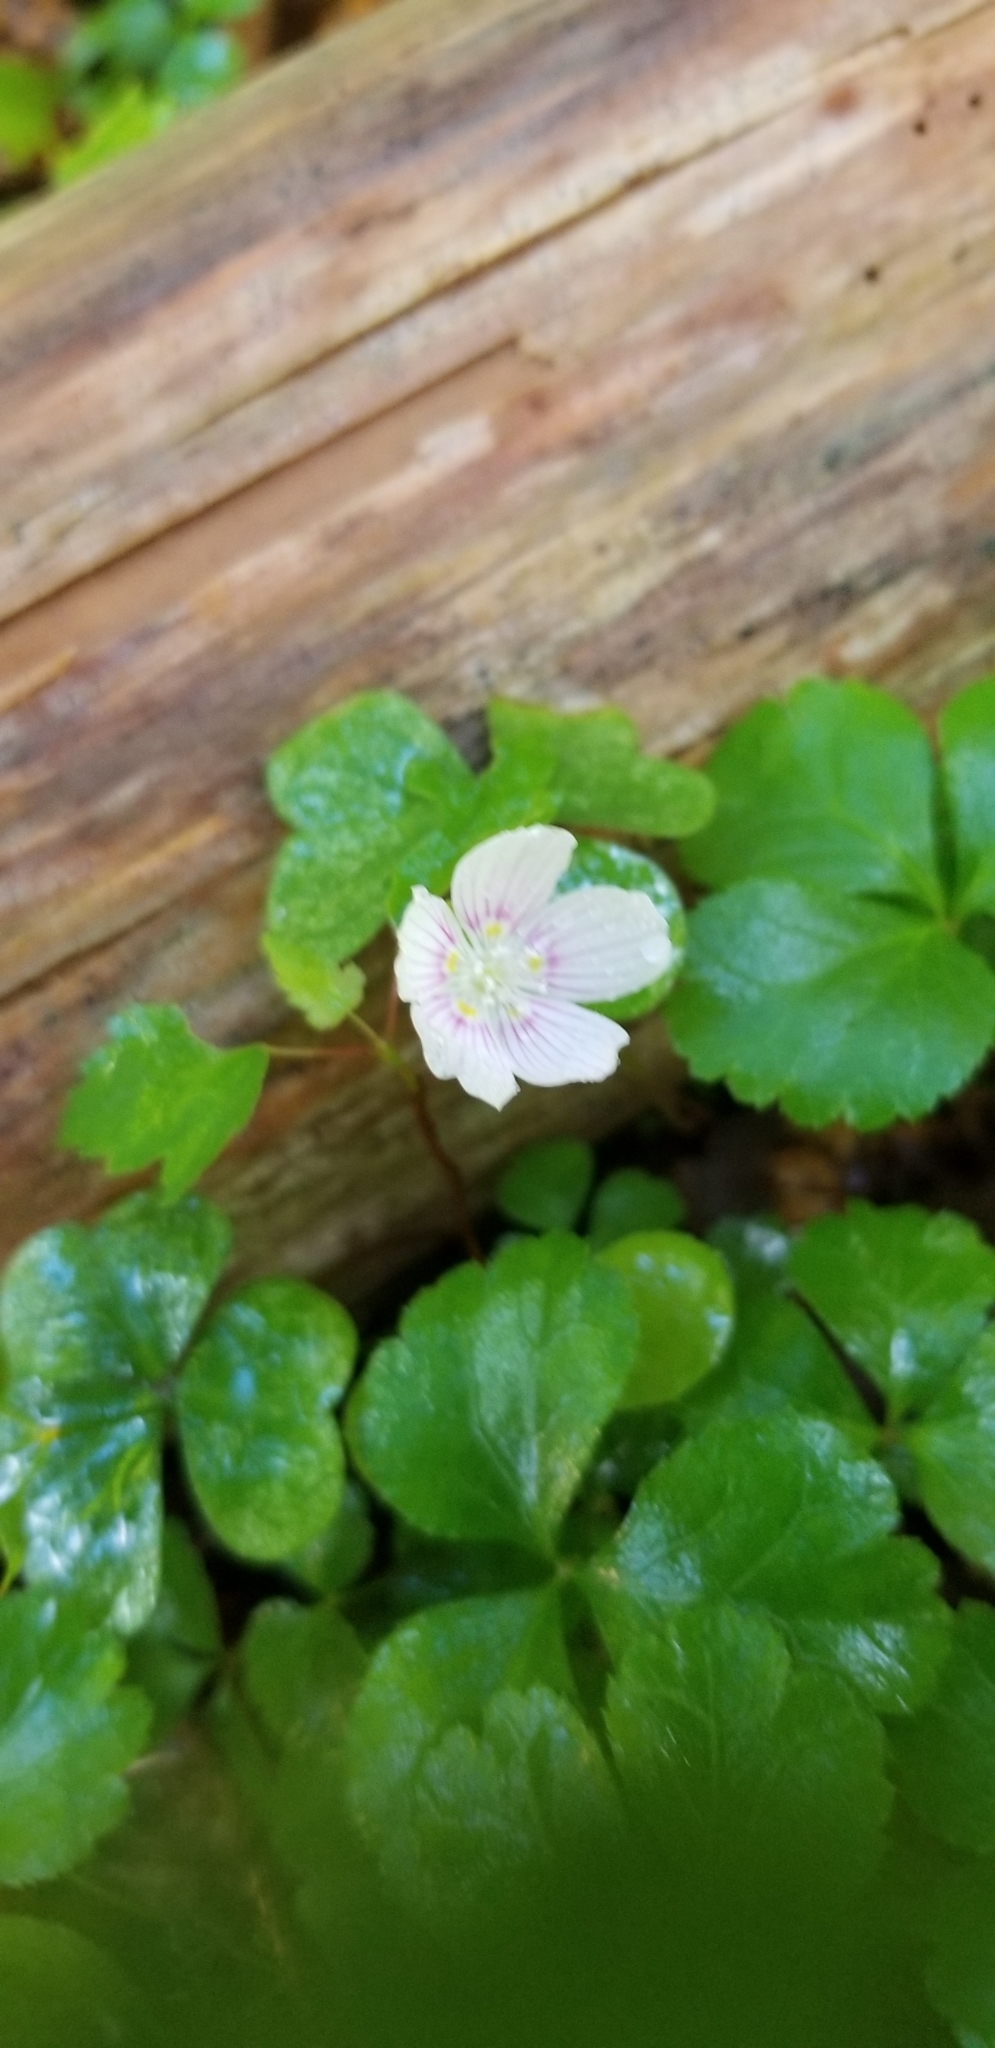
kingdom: Plantae
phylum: Tracheophyta
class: Magnoliopsida
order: Oxalidales
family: Oxalidaceae
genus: Oxalis
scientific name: Oxalis montana
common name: American wood-sorrel
